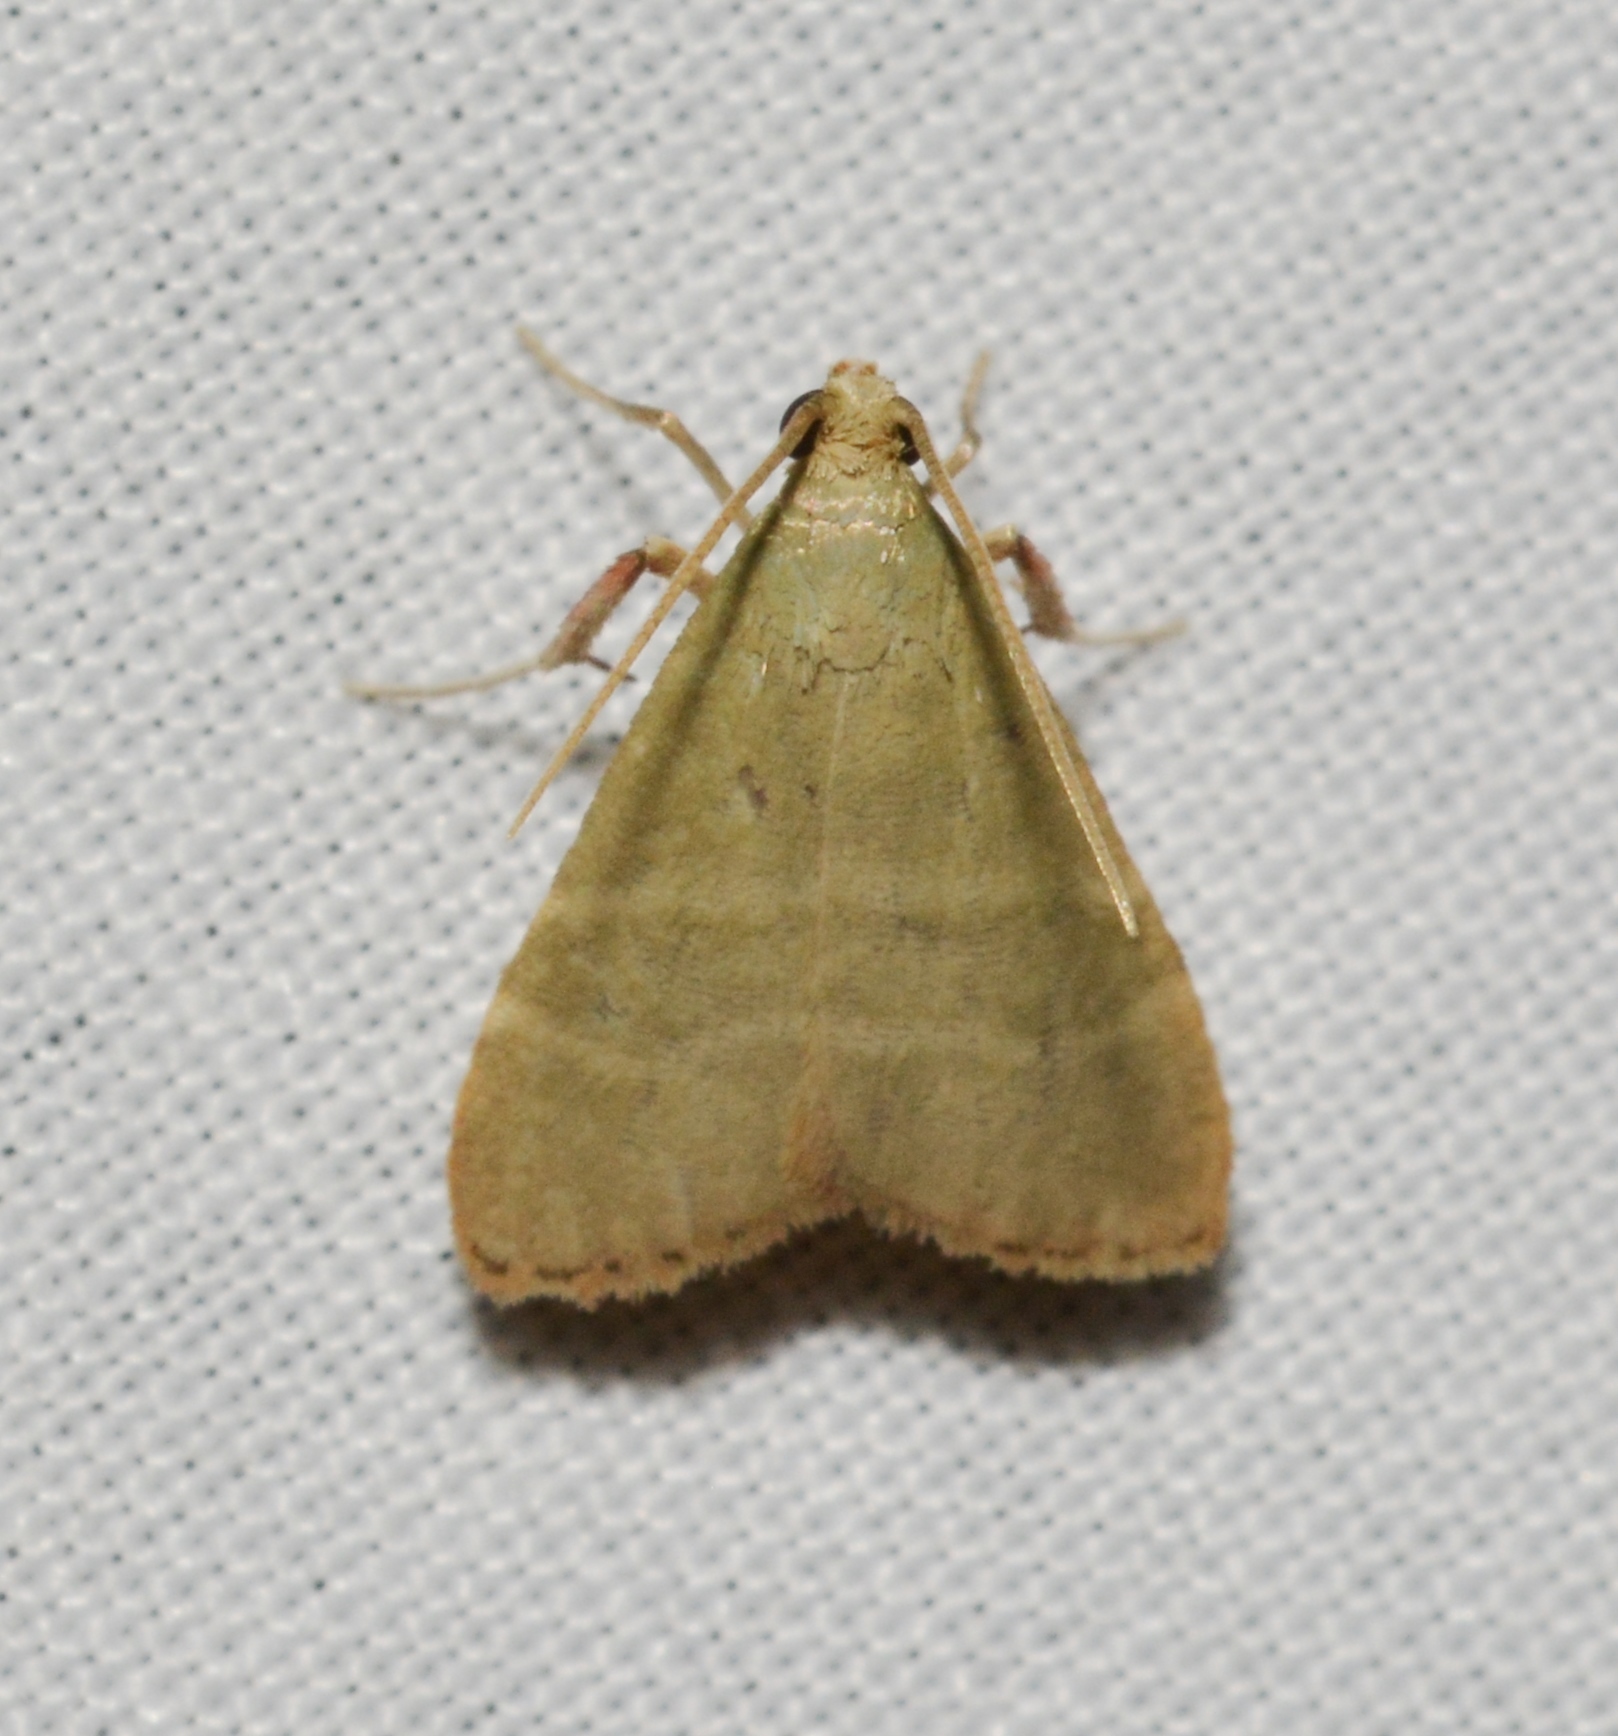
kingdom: Animalia
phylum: Arthropoda
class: Insecta
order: Lepidoptera
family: Pyralidae
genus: Arta
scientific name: Arta olivalis
